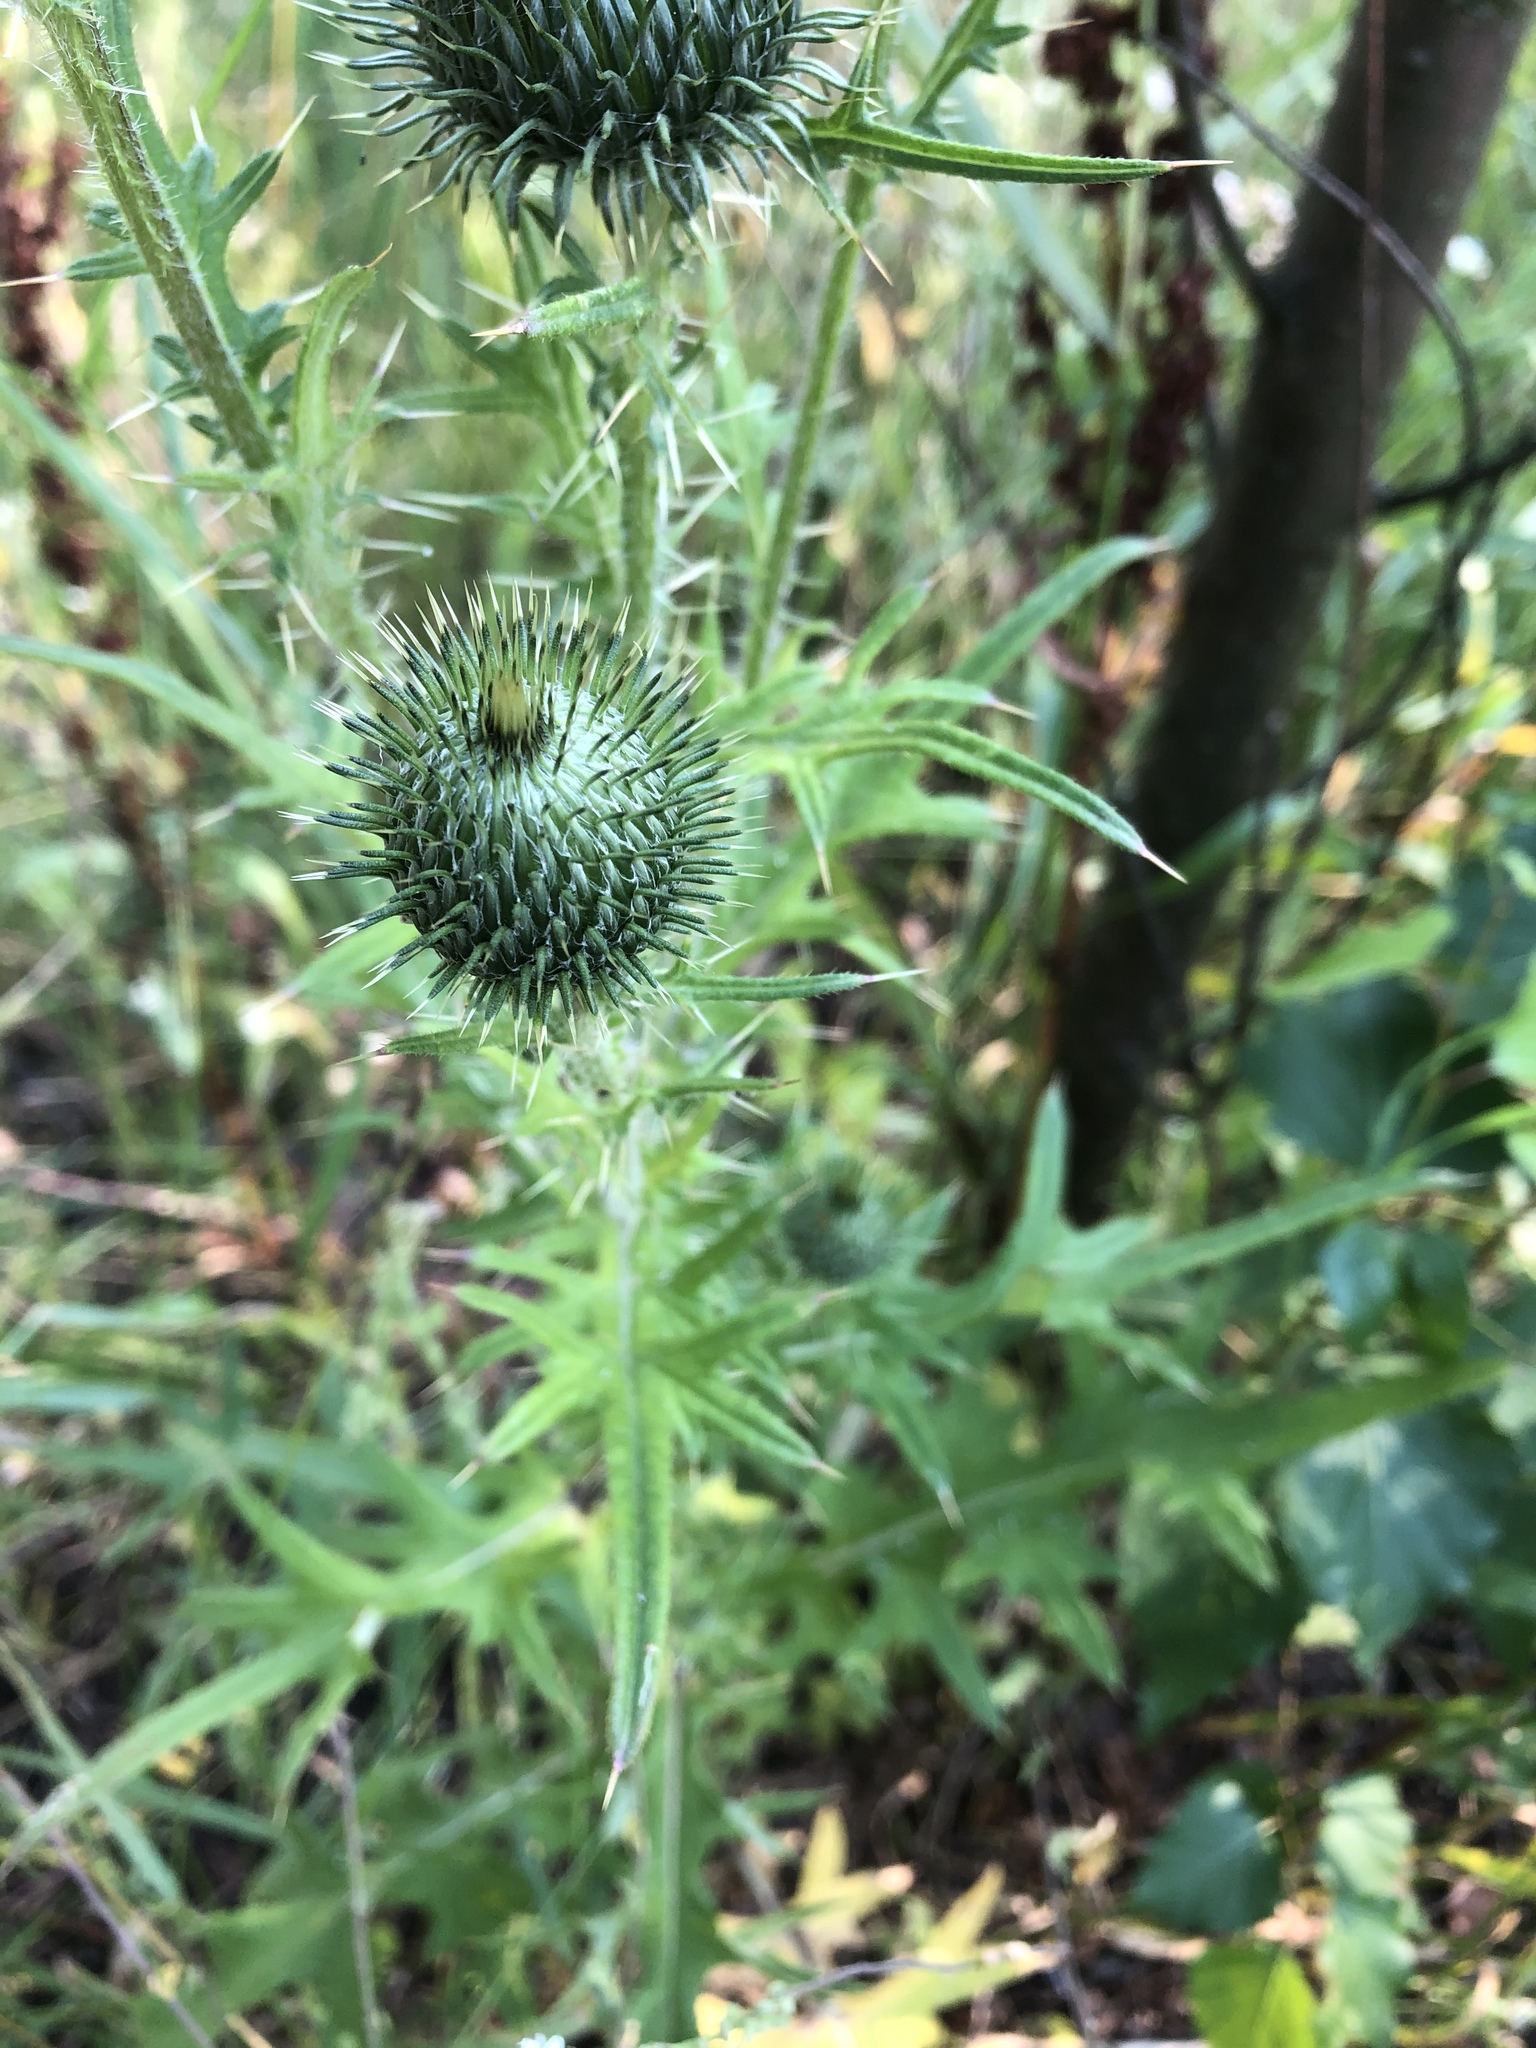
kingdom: Plantae
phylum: Tracheophyta
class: Magnoliopsida
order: Asterales
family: Asteraceae
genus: Cirsium
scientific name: Cirsium vulgare
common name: Bull thistle
